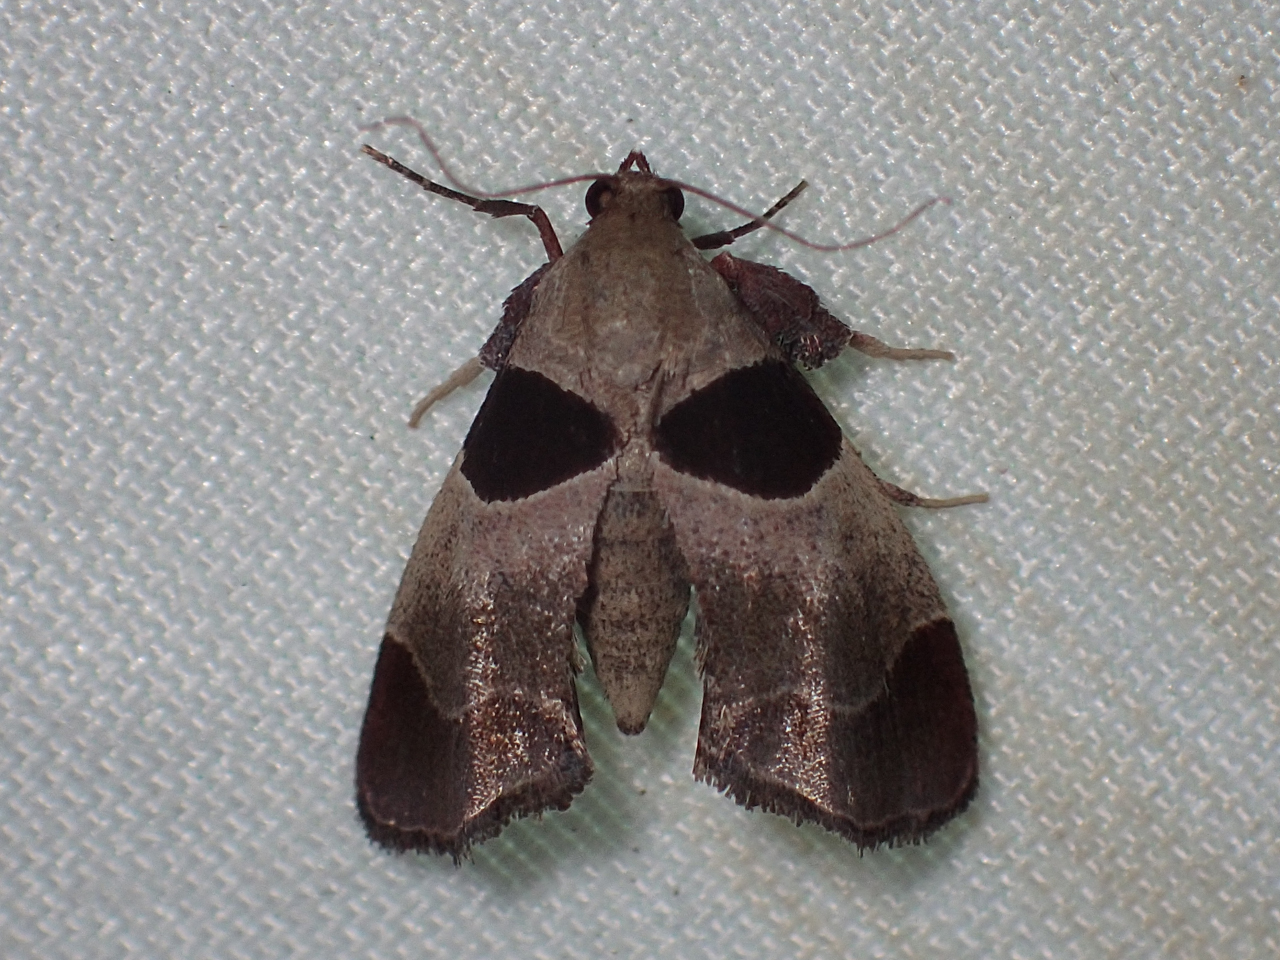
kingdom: Animalia
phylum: Arthropoda
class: Insecta
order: Lepidoptera
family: Pyralidae
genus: Tosale
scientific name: Tosale oviplagalis
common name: Dimorphic tosale moth
